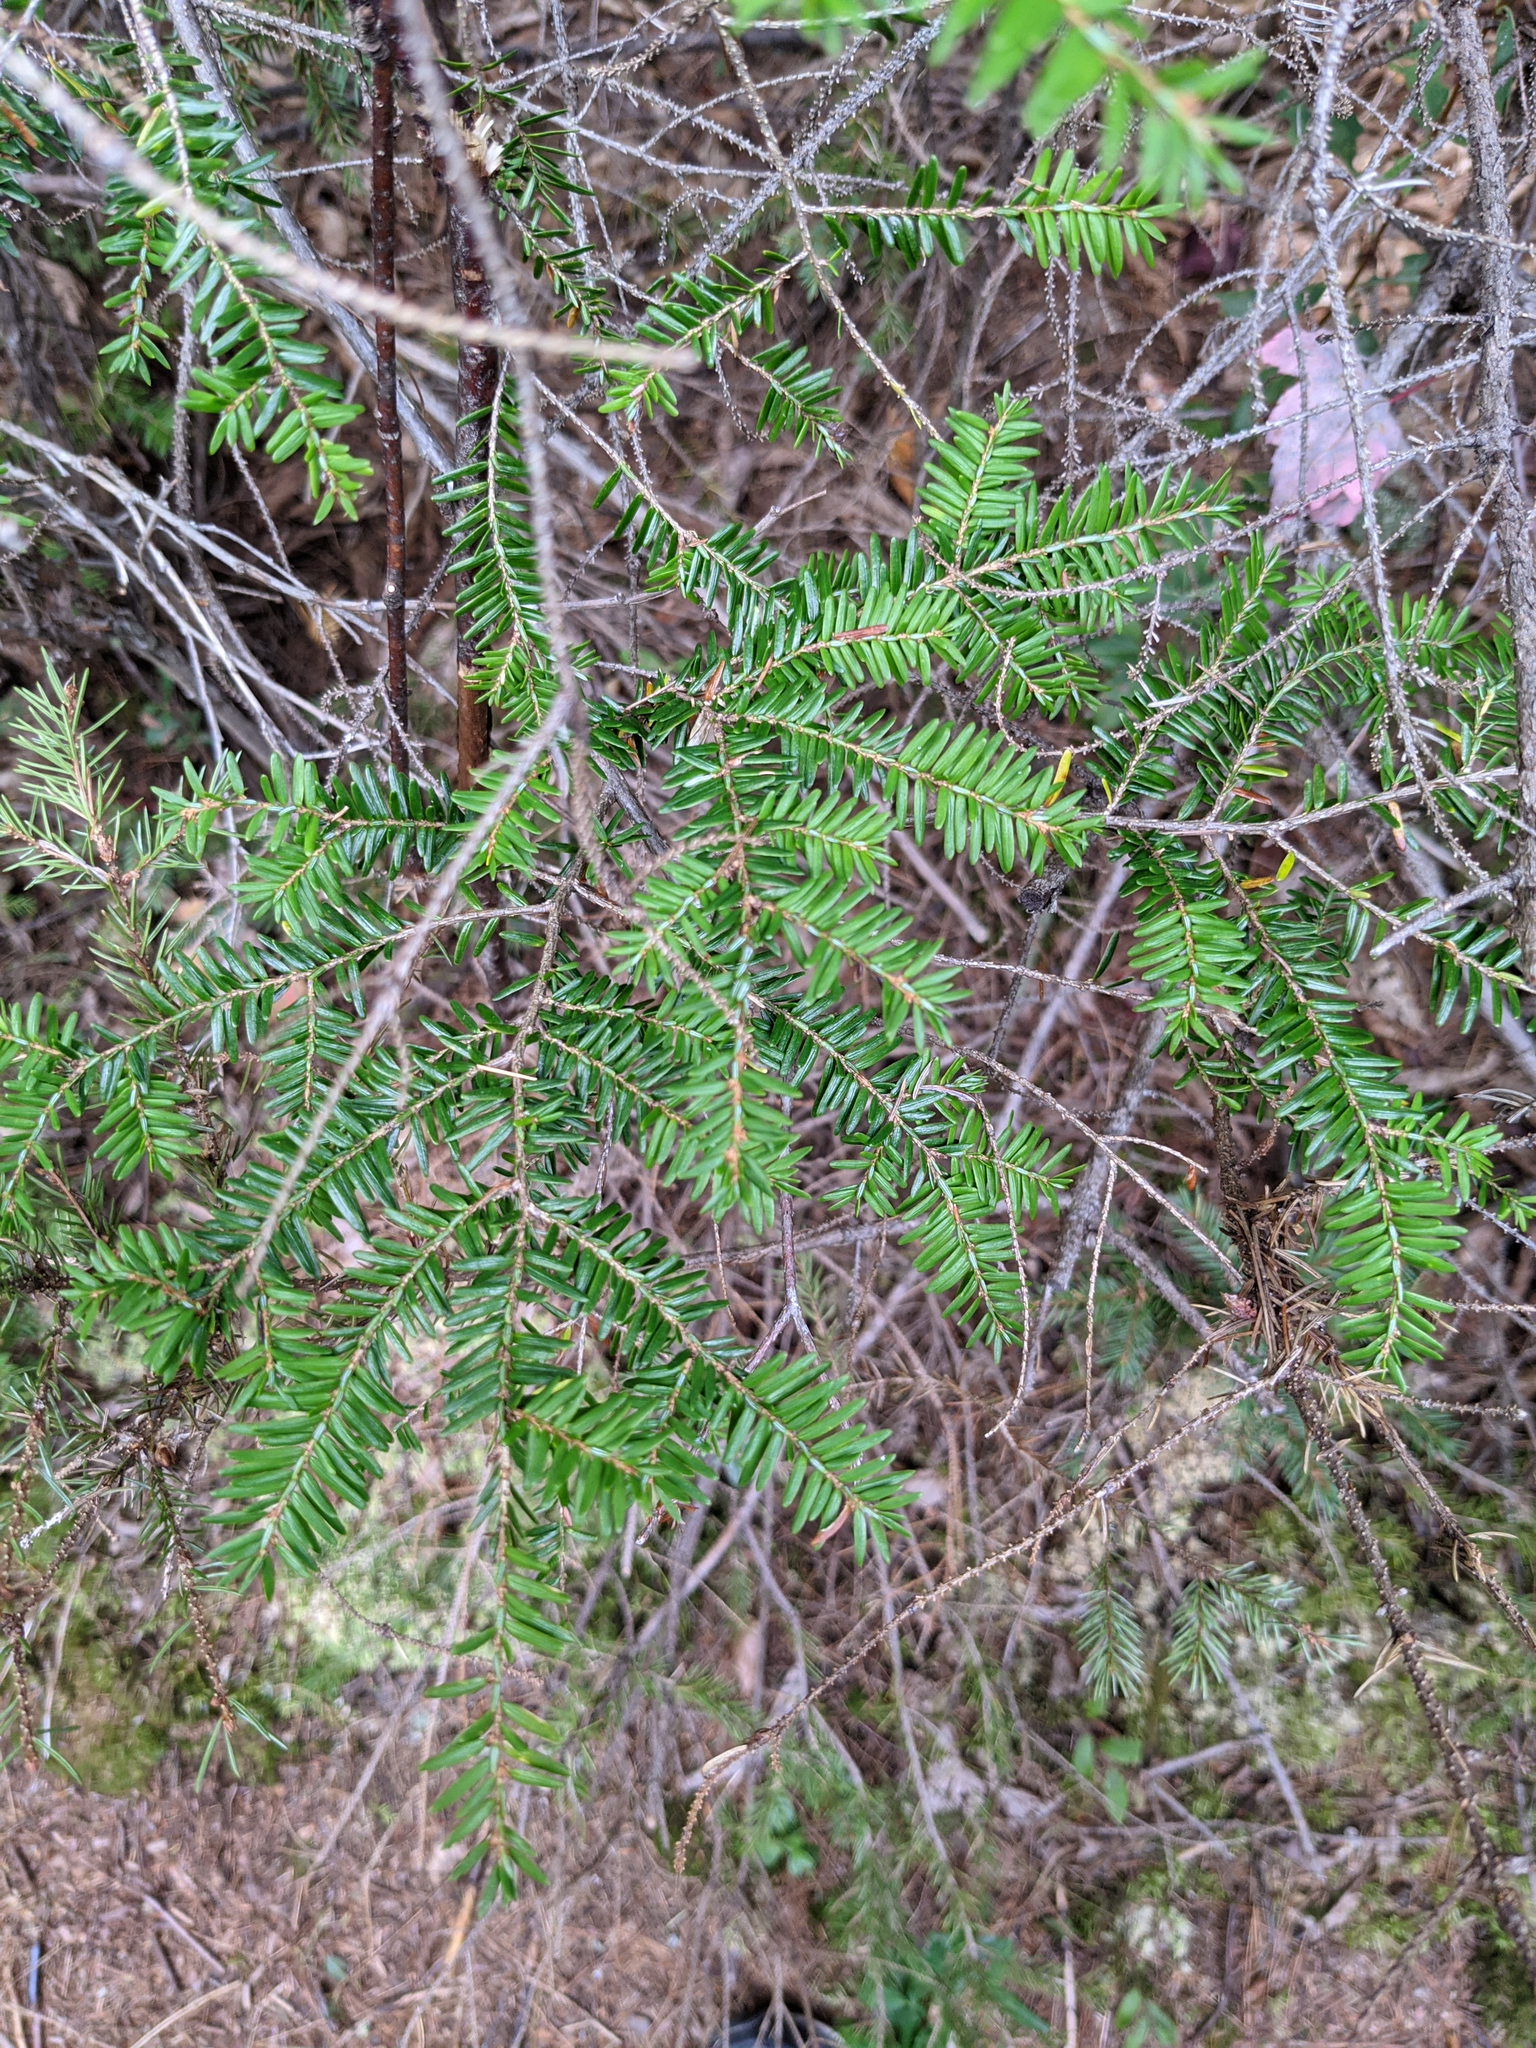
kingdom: Plantae
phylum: Tracheophyta
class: Pinopsida
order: Pinales
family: Pinaceae
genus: Tsuga
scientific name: Tsuga canadensis
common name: Eastern hemlock
